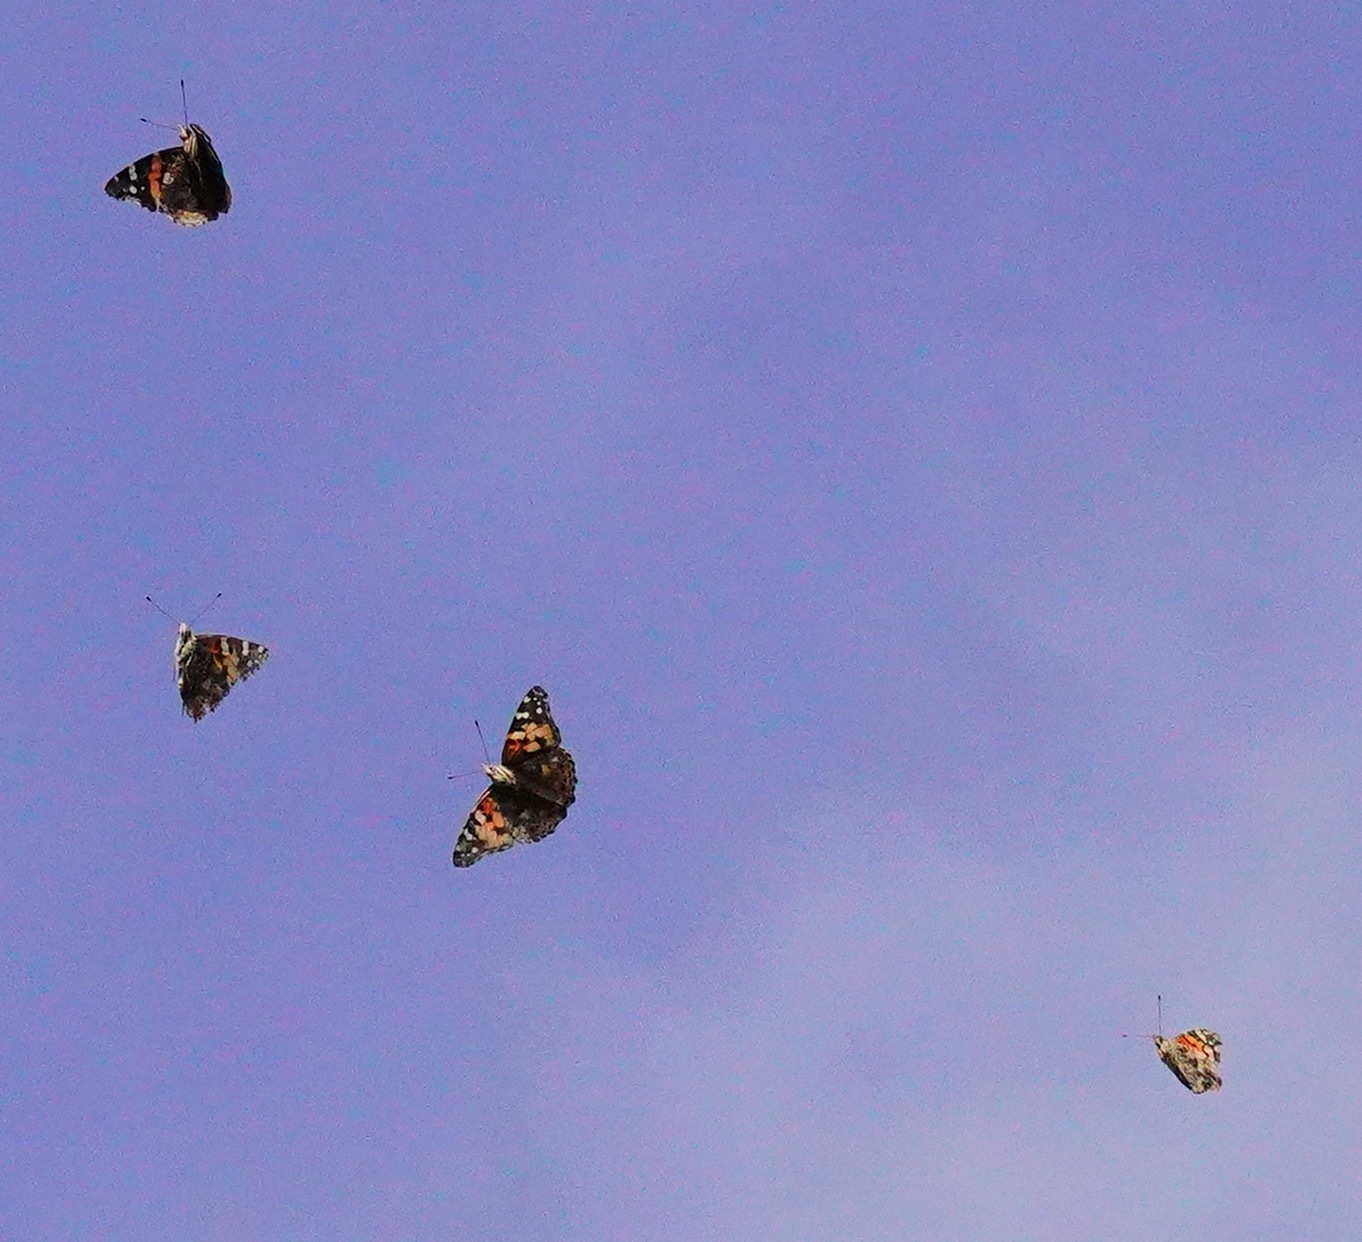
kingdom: Animalia
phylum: Arthropoda
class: Insecta
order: Lepidoptera
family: Nymphalidae
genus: Vanessa
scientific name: Vanessa cardui
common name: Painted lady
